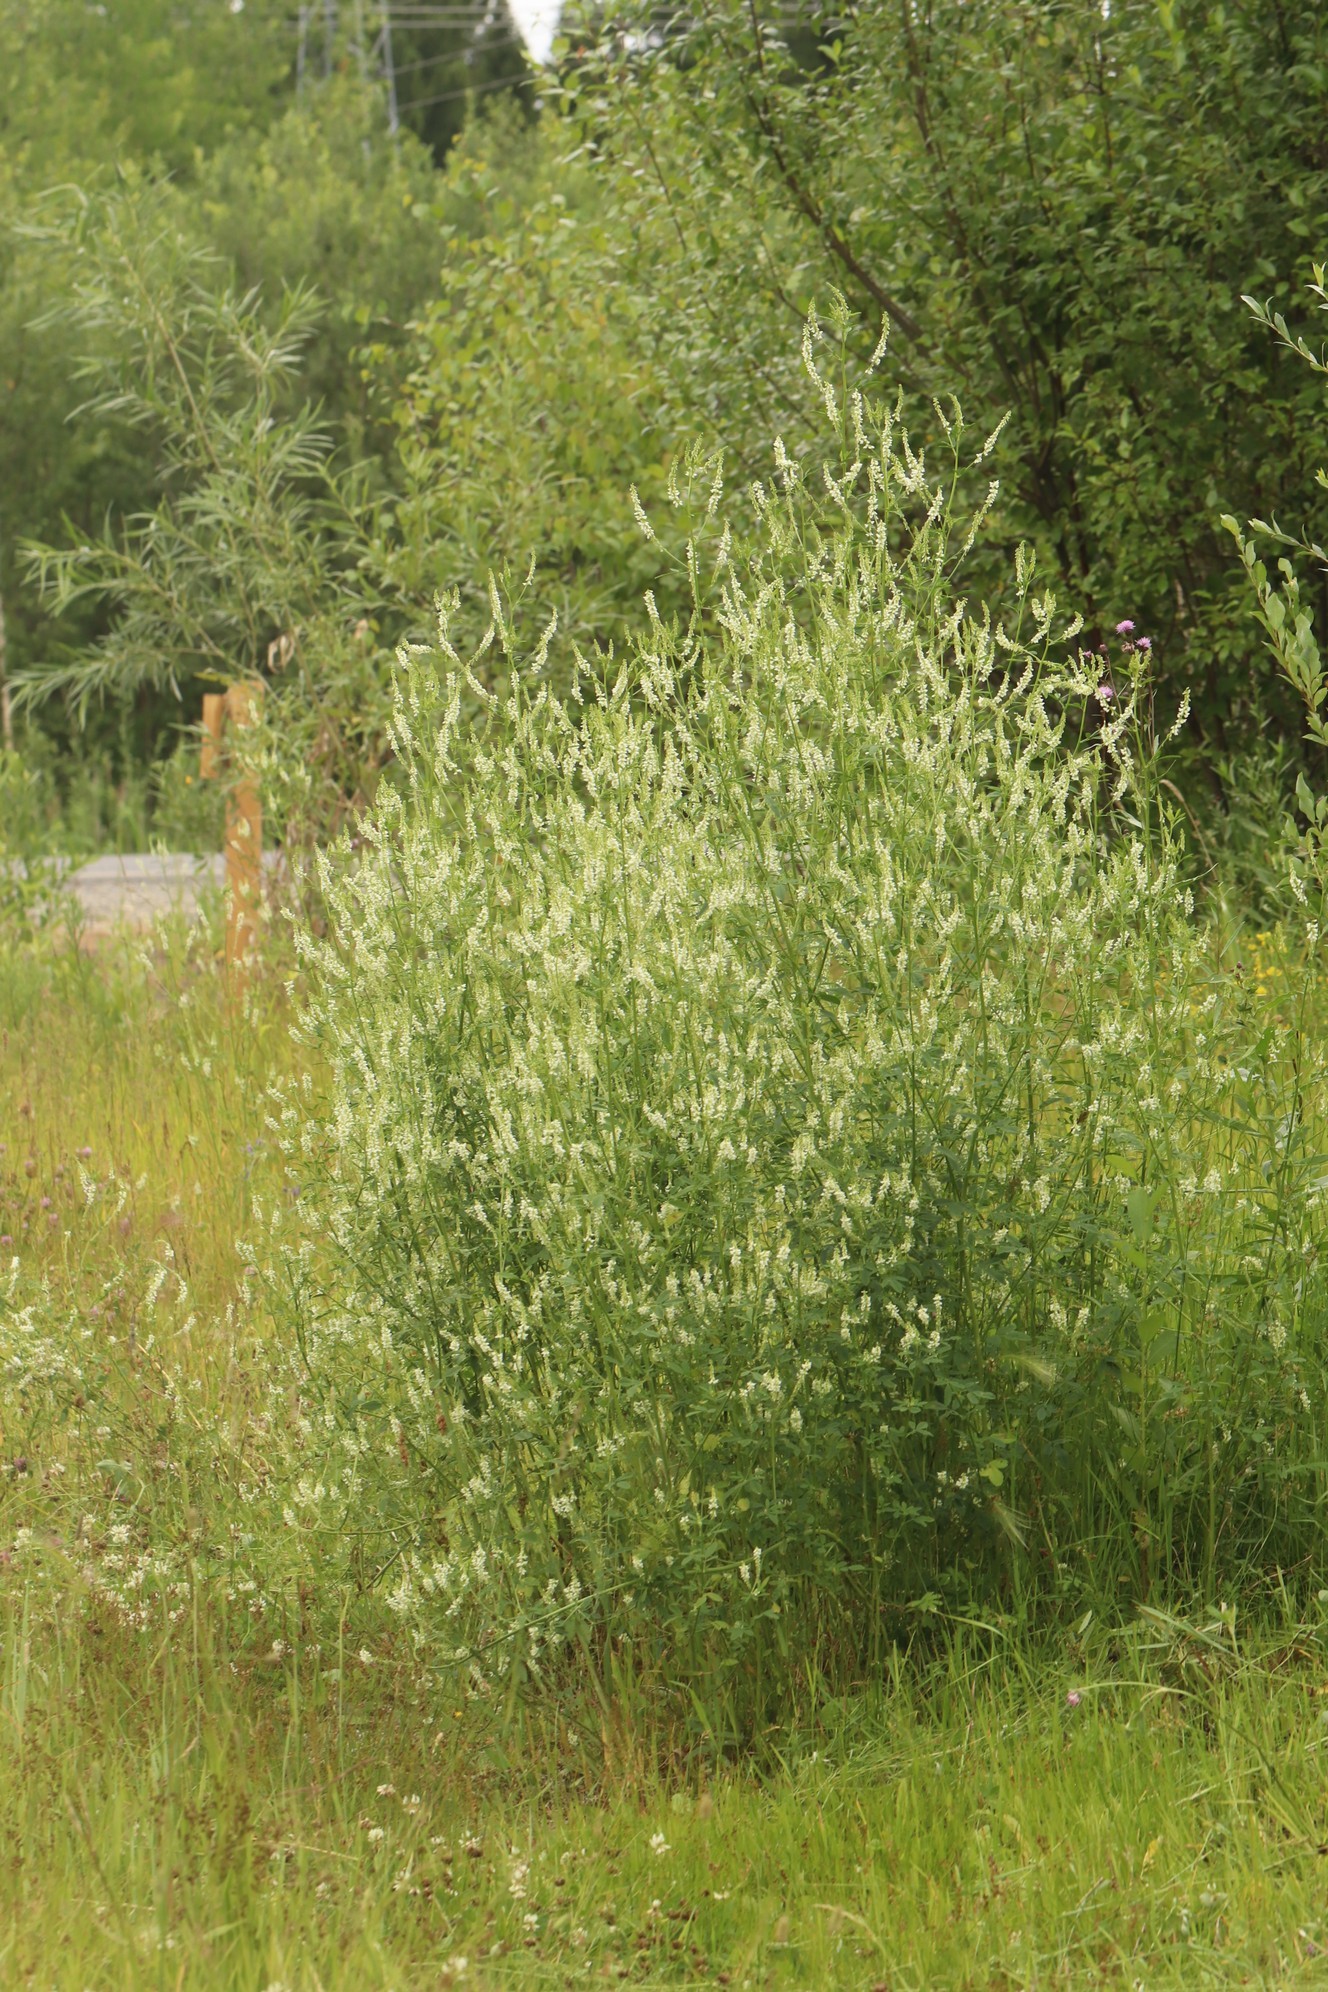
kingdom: Plantae
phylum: Tracheophyta
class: Magnoliopsida
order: Fabales
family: Fabaceae
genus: Melilotus
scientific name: Melilotus albus
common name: White melilot
